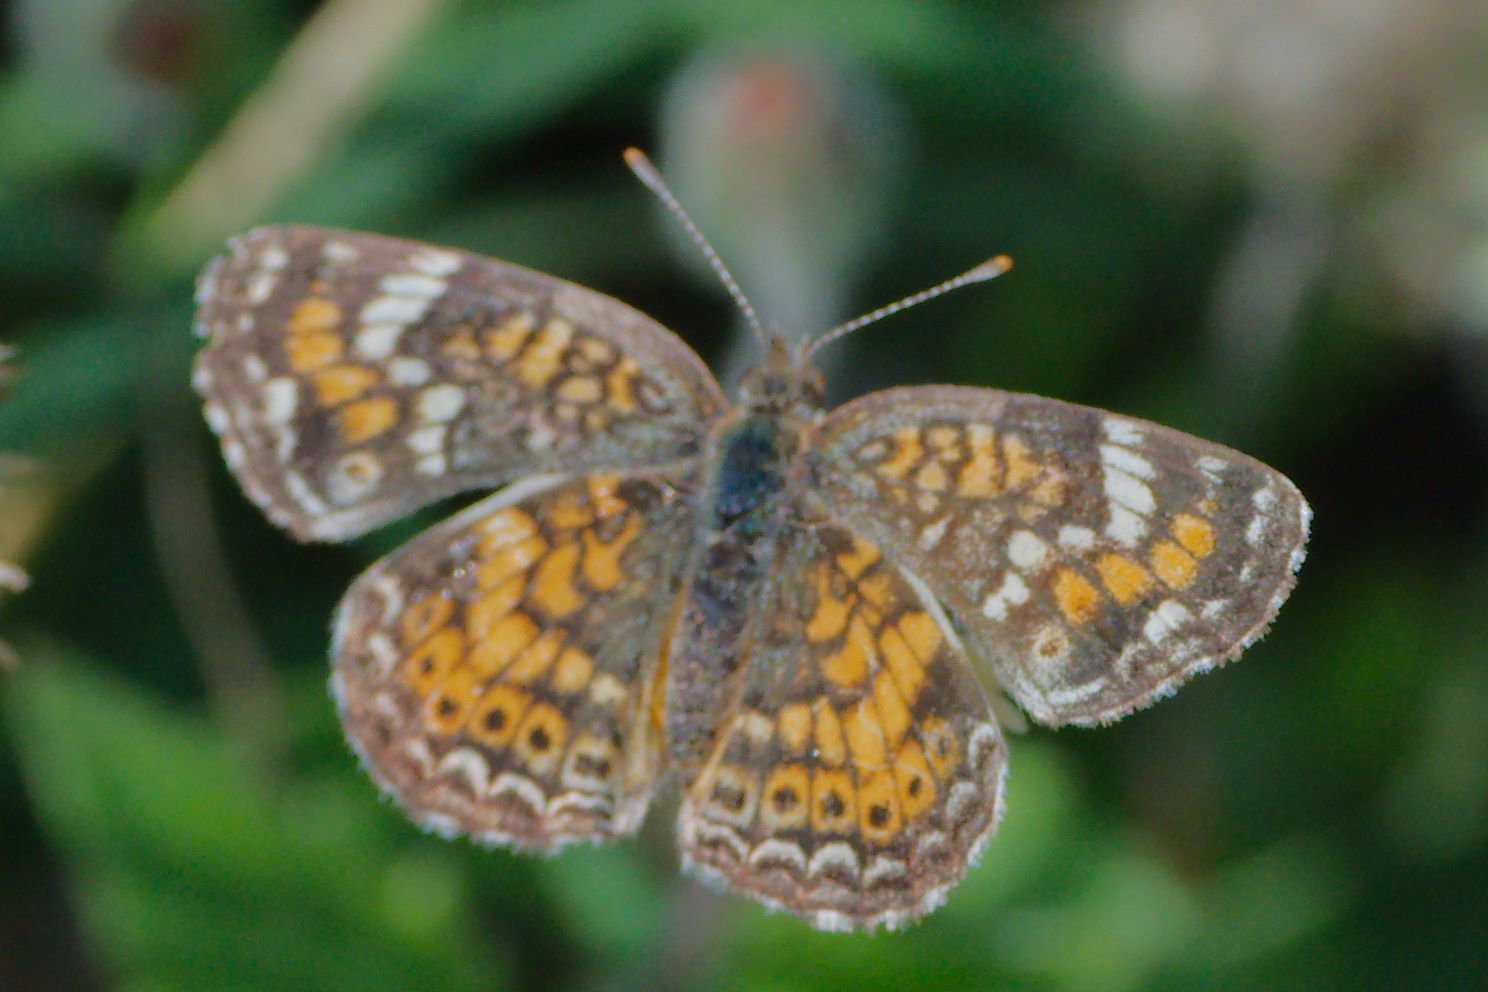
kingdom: Animalia
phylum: Arthropoda
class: Insecta
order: Lepidoptera
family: Nymphalidae
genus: Phyciodes
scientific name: Phyciodes phaon
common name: Phaon crescent
